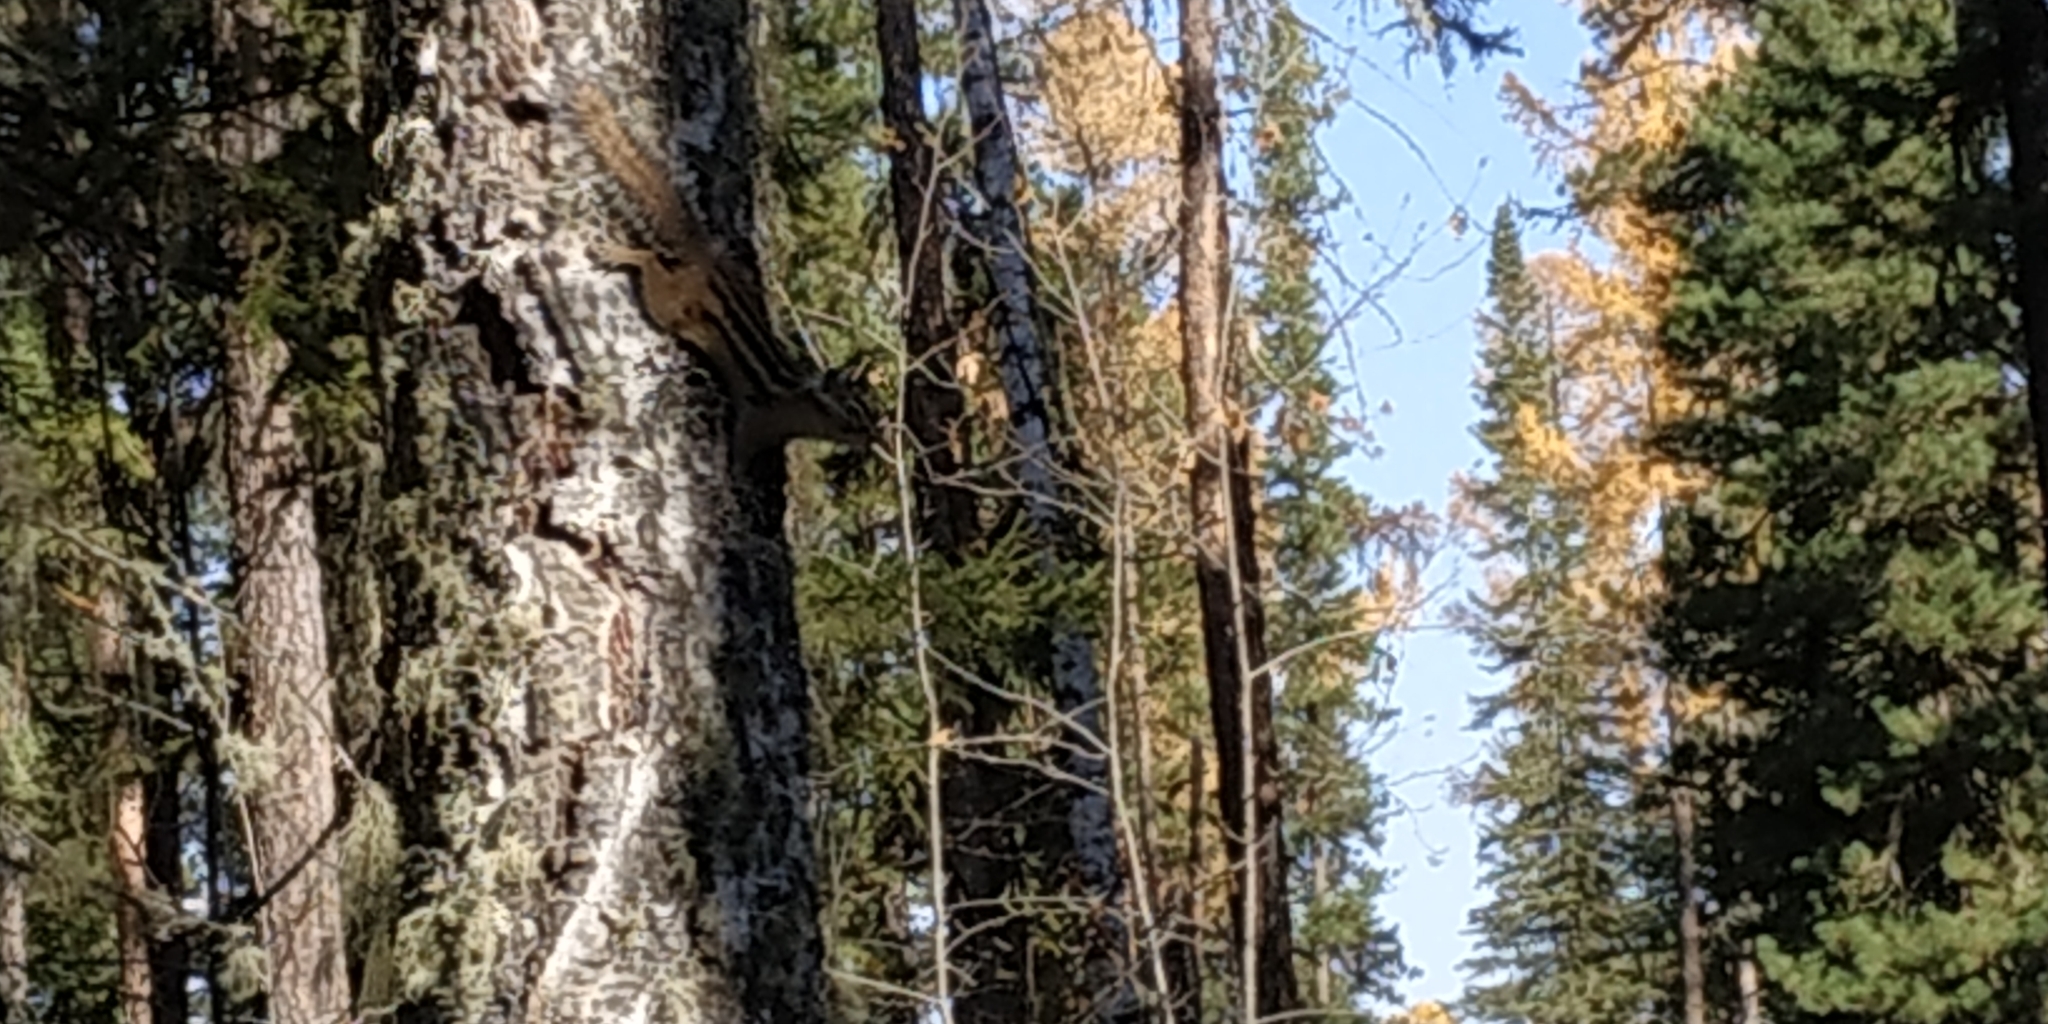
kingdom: Animalia
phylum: Chordata
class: Mammalia
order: Rodentia
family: Sciuridae
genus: Tamias
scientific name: Tamias sibiricus
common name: Siberian chipmunk
